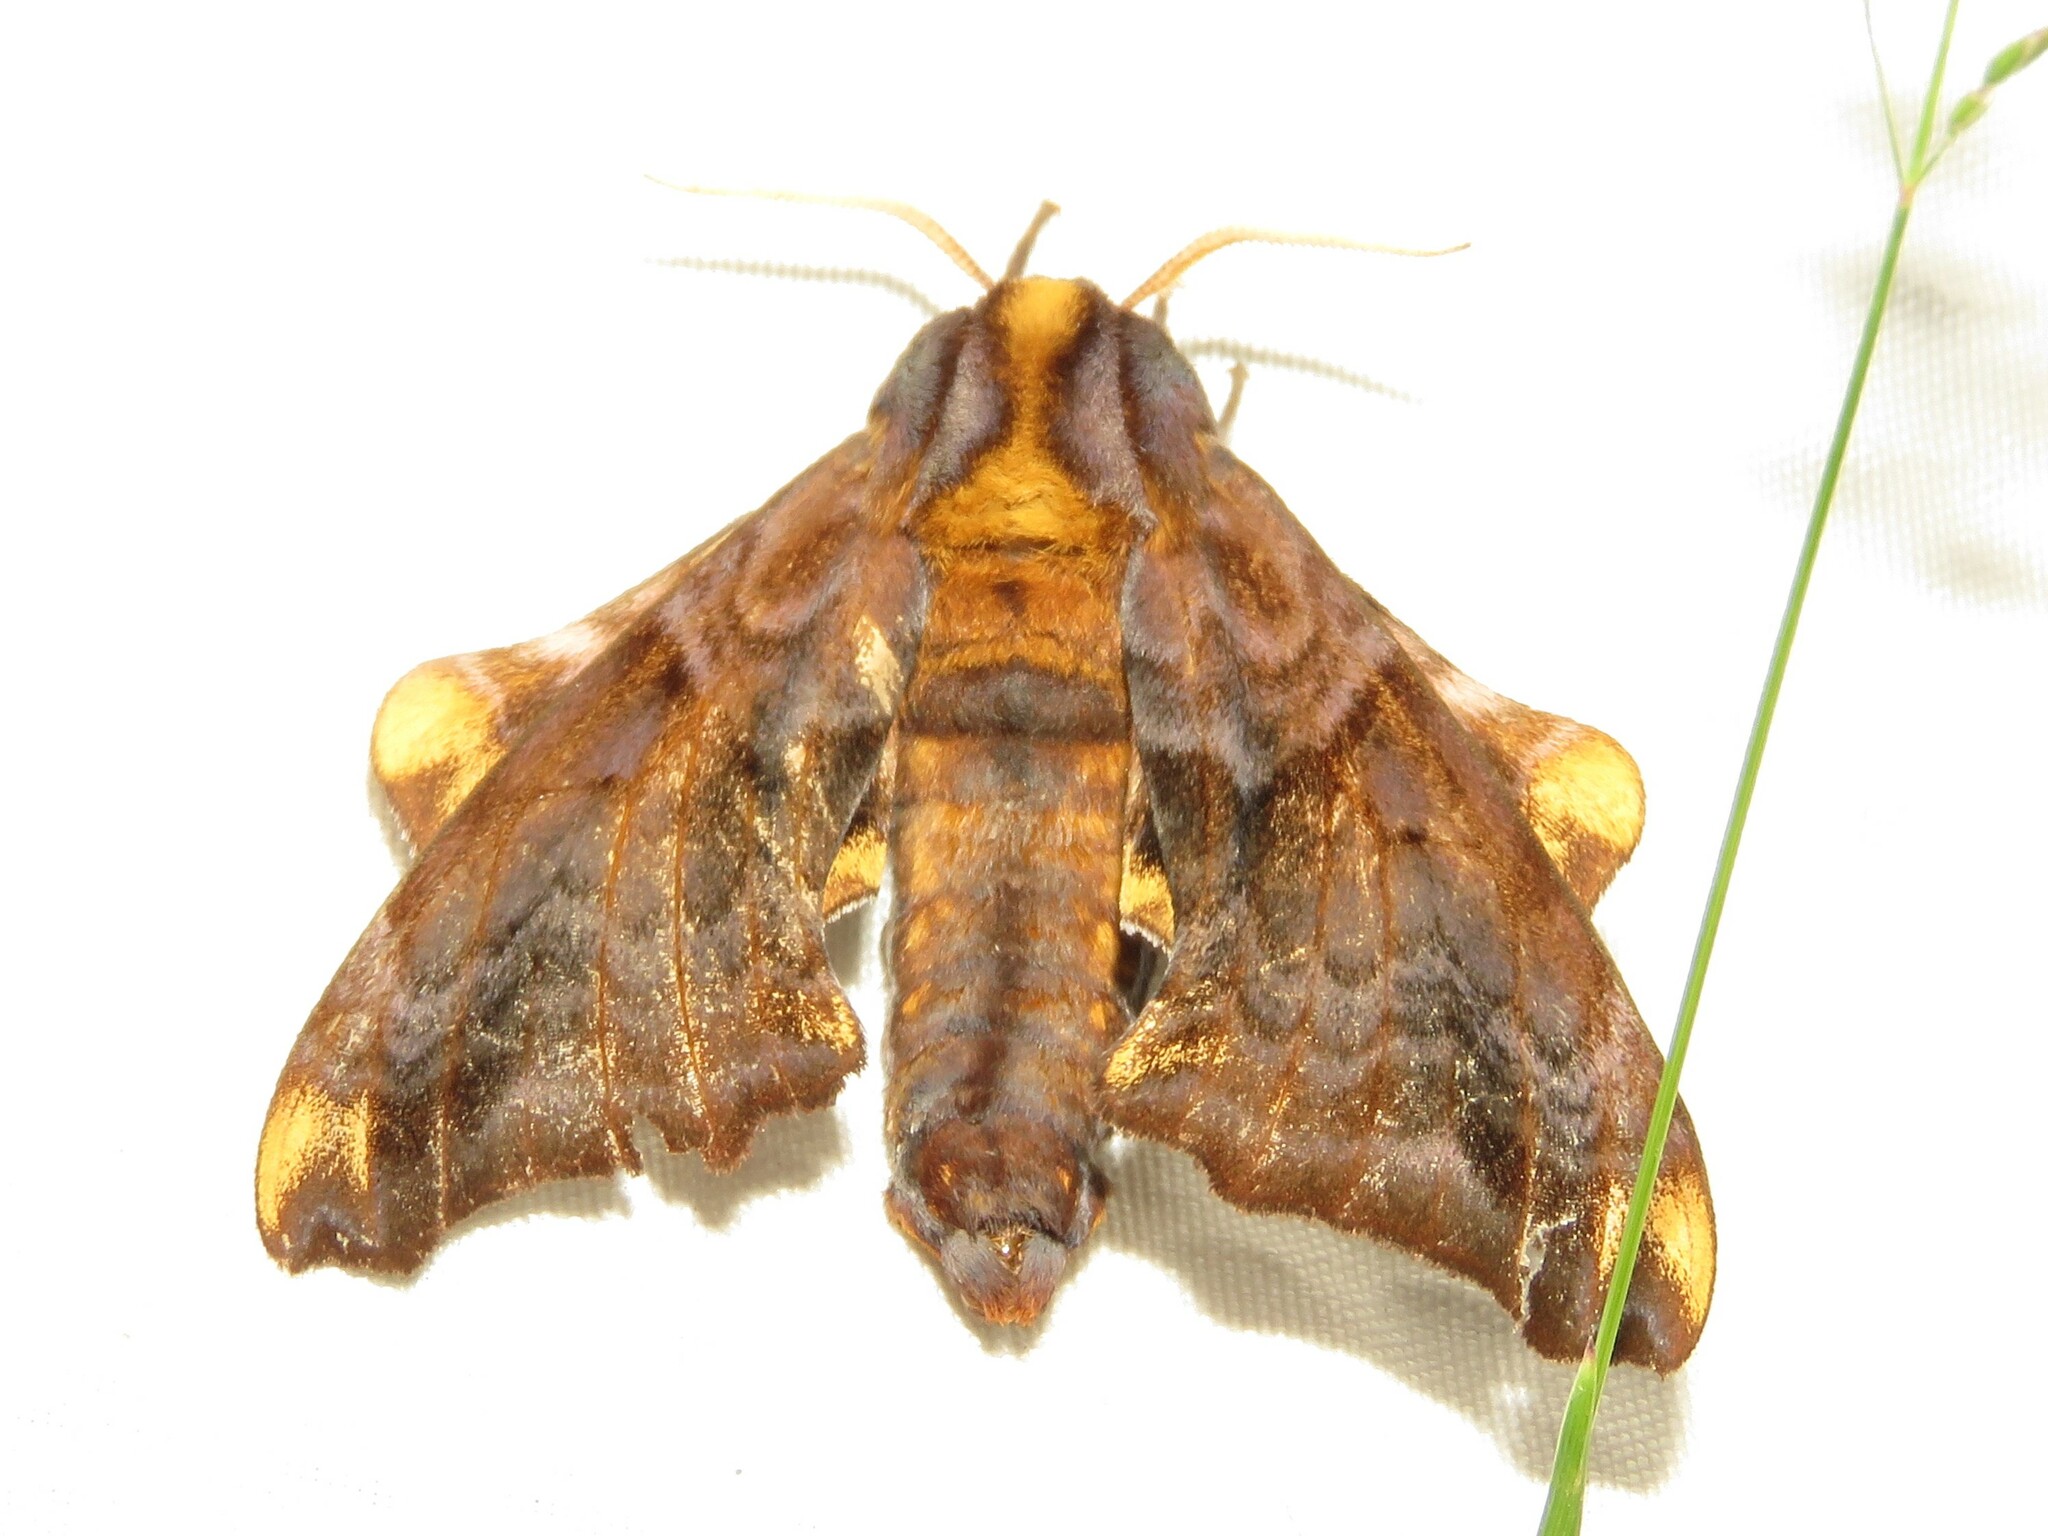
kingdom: Animalia
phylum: Arthropoda
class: Insecta
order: Lepidoptera
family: Sphingidae
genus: Paonias
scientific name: Paonias myops
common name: Small-eyed sphinx
